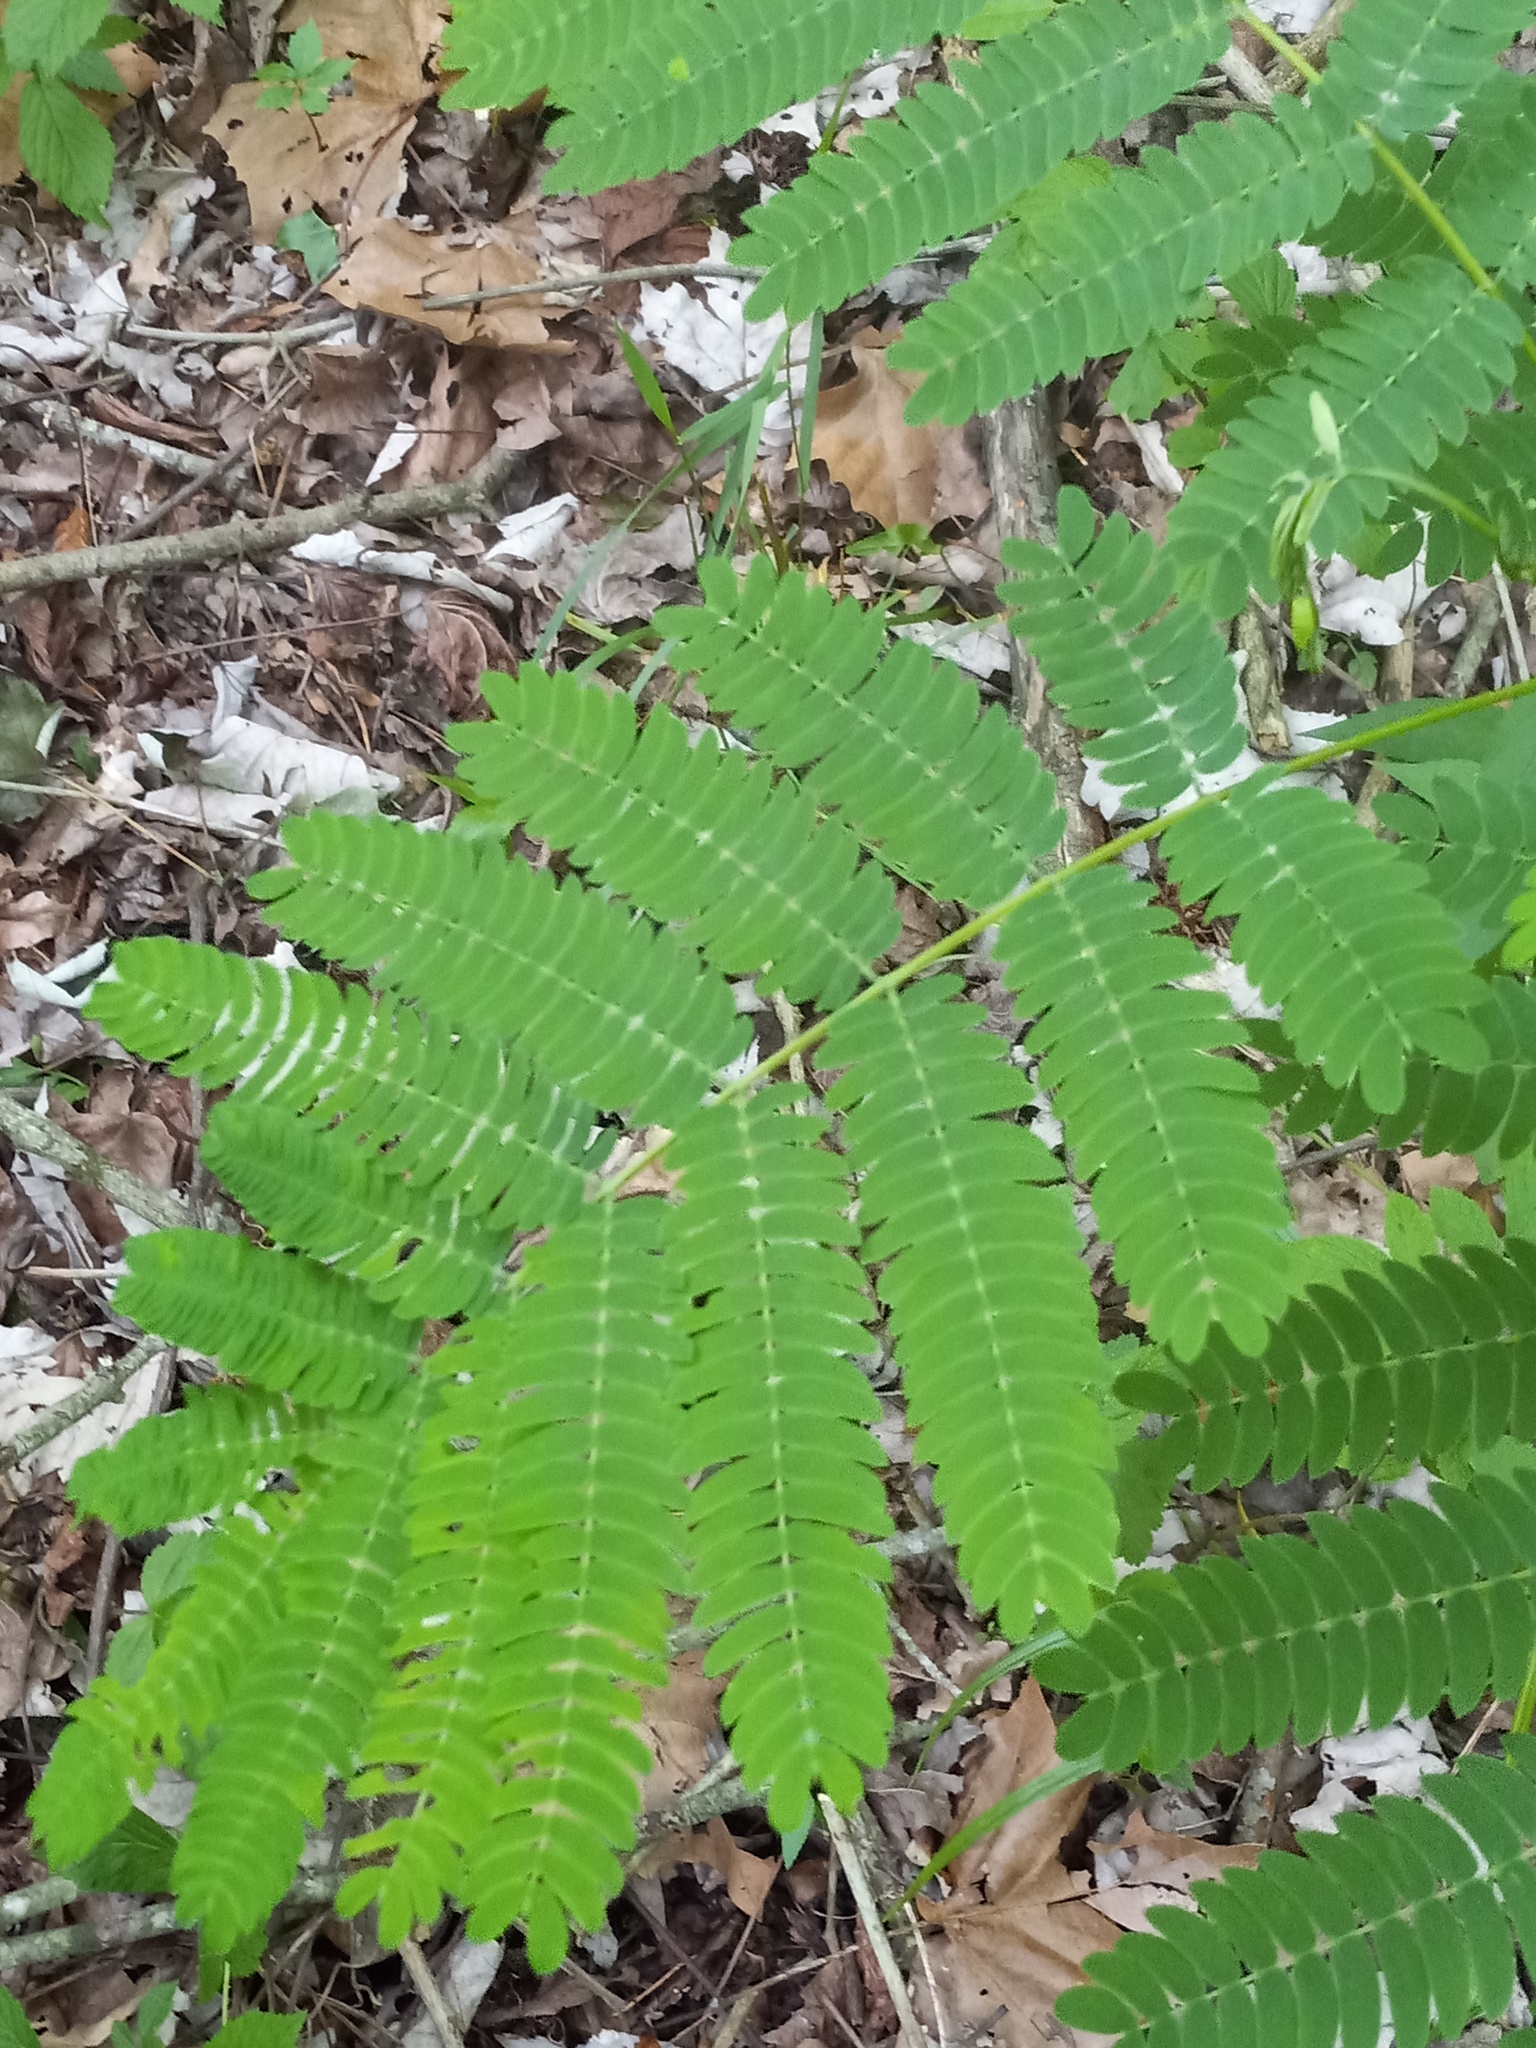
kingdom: Plantae
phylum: Tracheophyta
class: Magnoliopsida
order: Fabales
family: Fabaceae
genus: Albizia
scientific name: Albizia julibrissin
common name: Silktree
